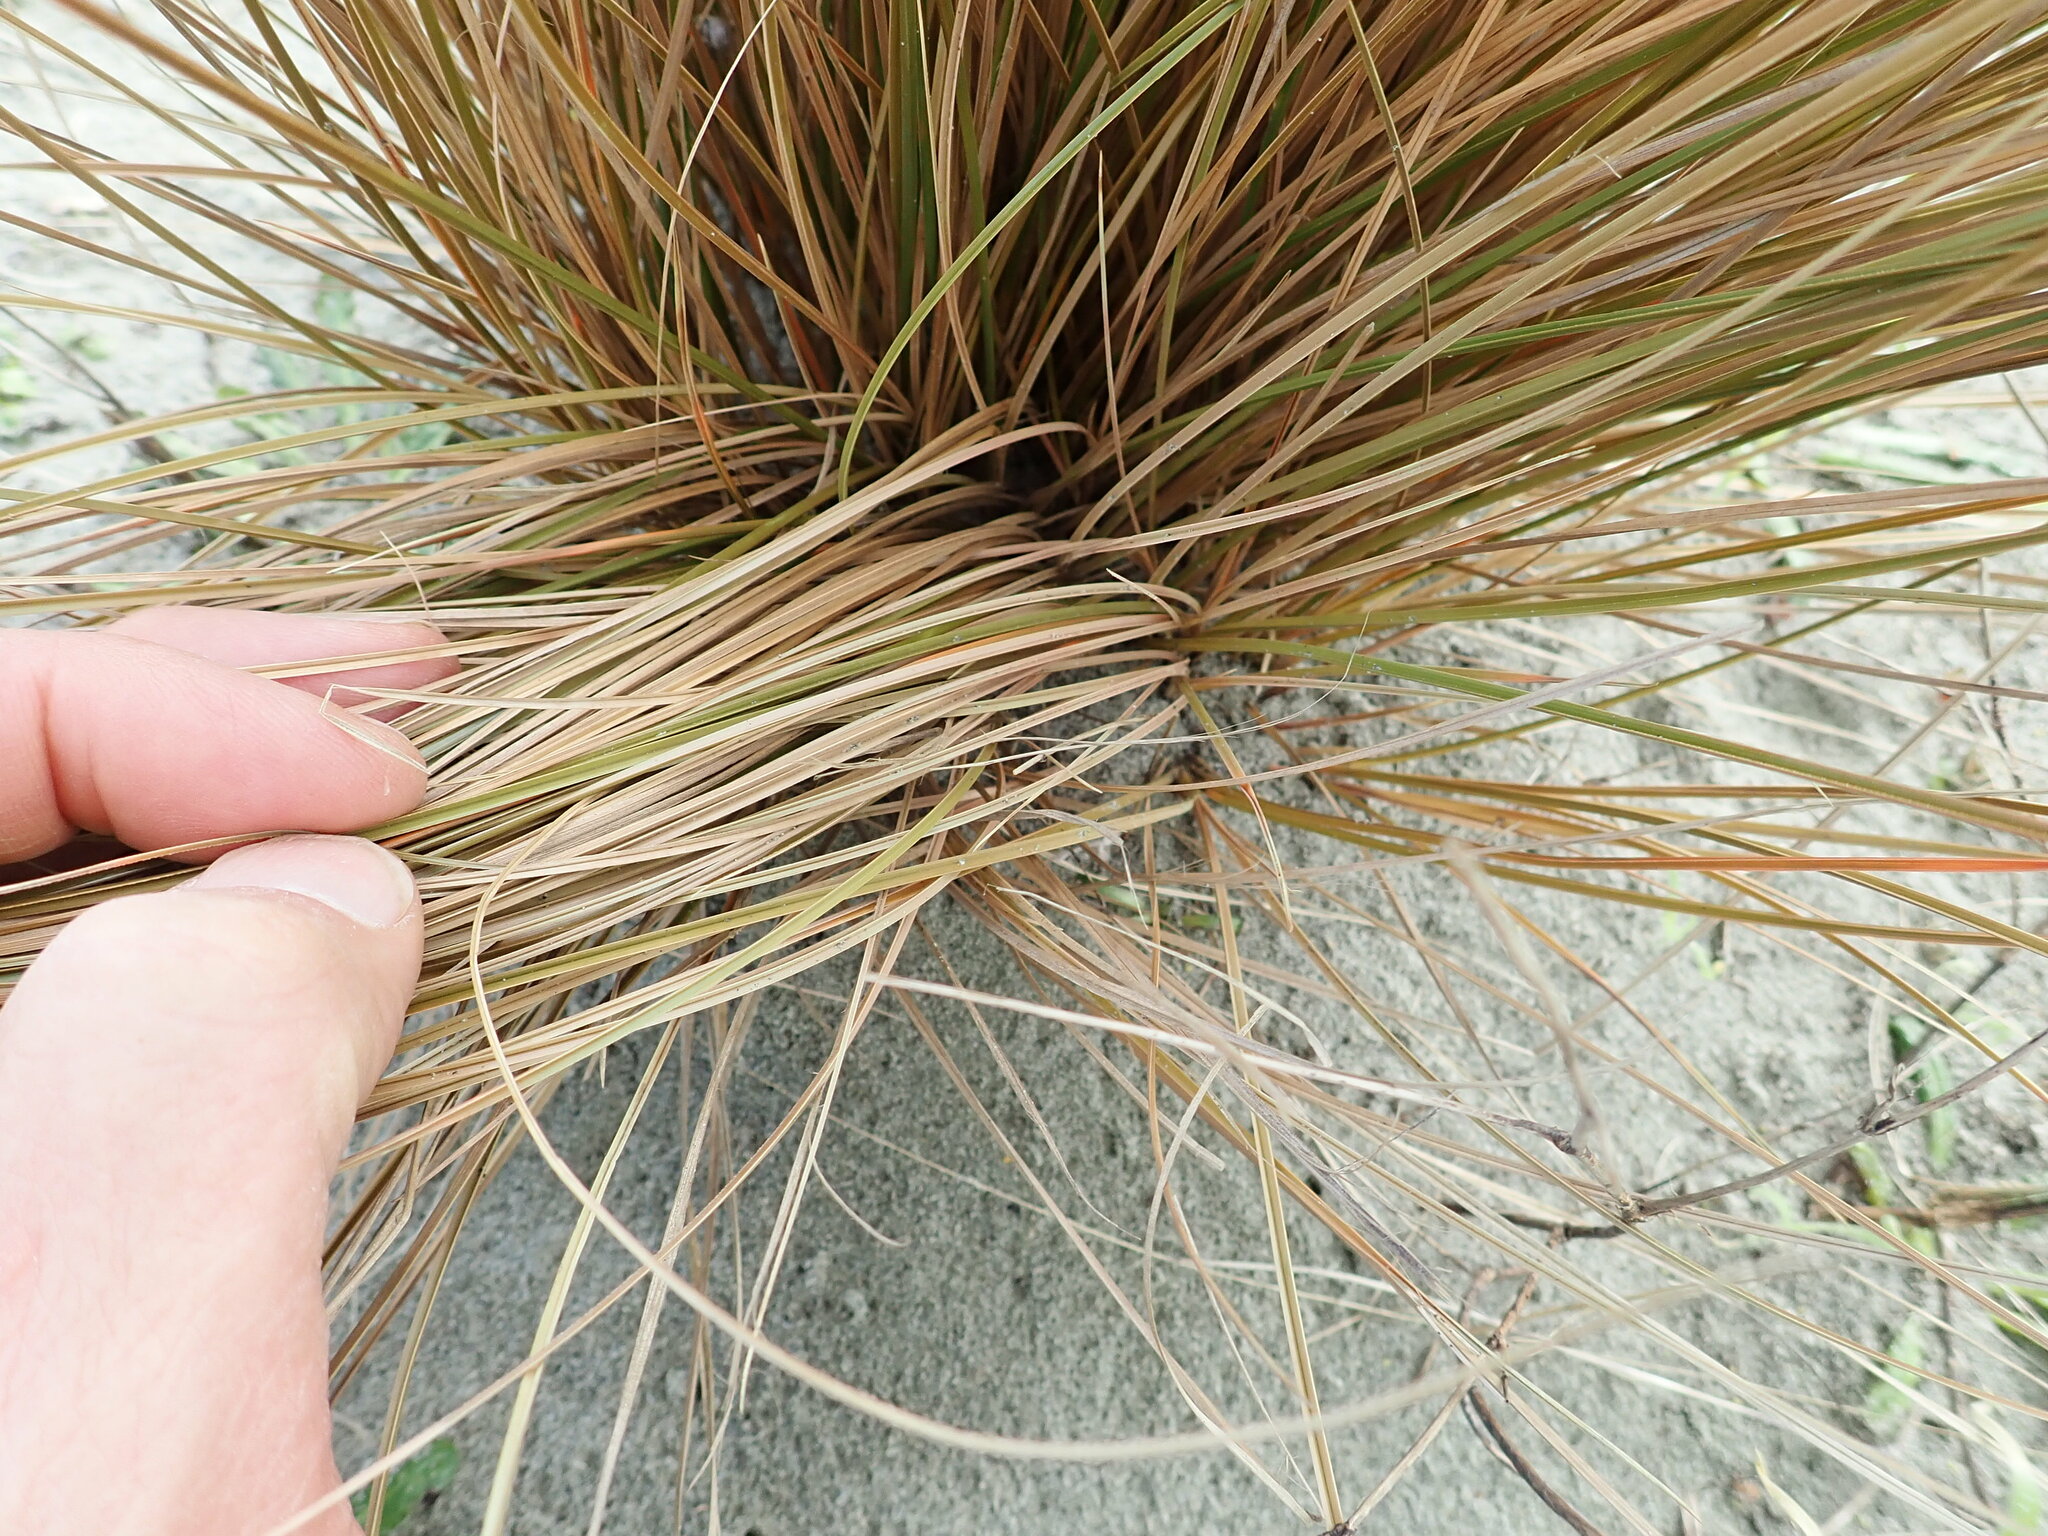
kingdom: Plantae
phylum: Tracheophyta
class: Liliopsida
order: Poales
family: Cyperaceae
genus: Carex
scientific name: Carex testacea
